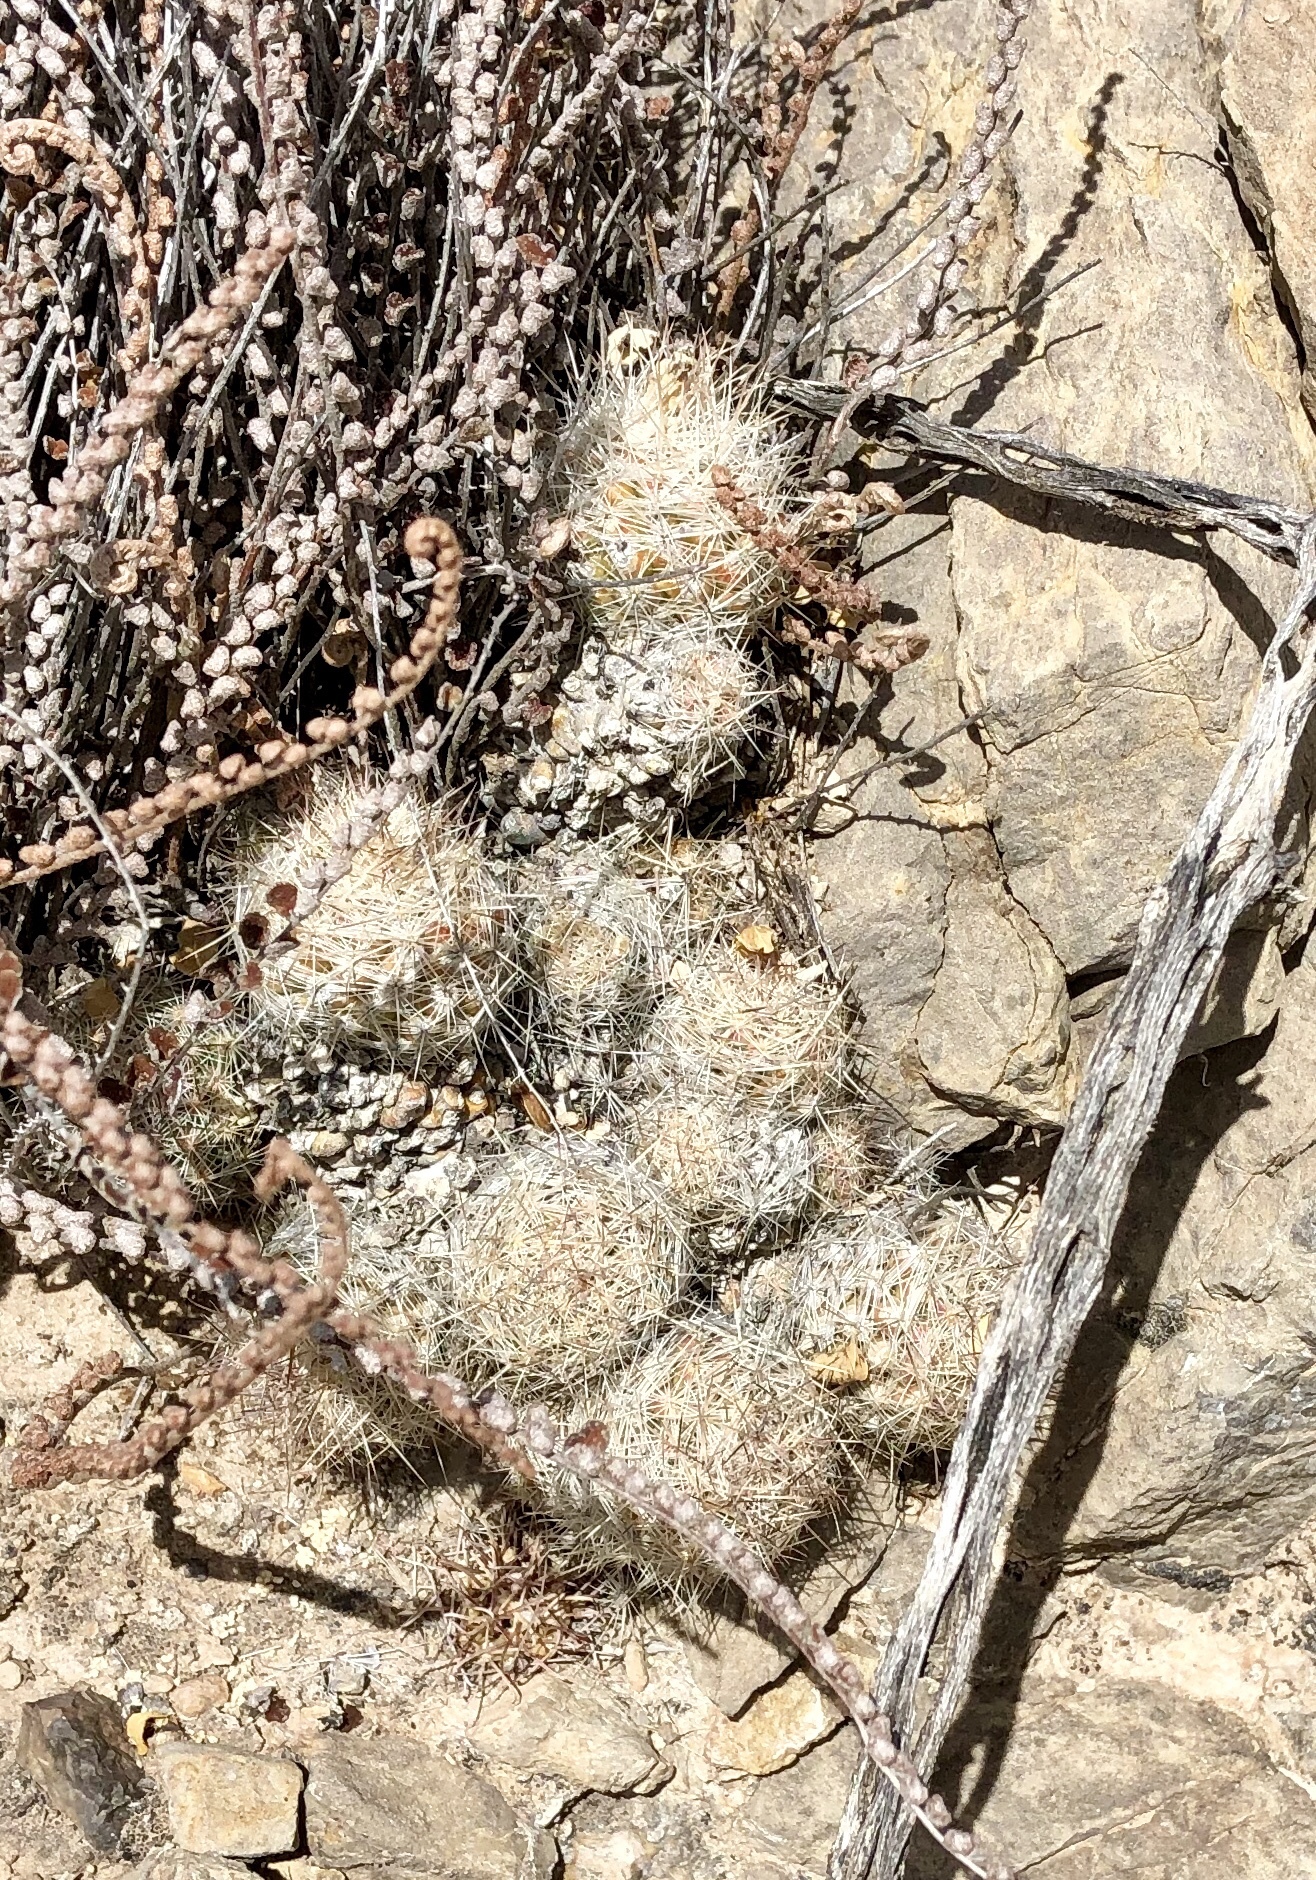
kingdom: Plantae
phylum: Tracheophyta
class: Magnoliopsida
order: Caryophyllales
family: Cactaceae
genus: Pelecyphora
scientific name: Pelecyphora tuberculosa
